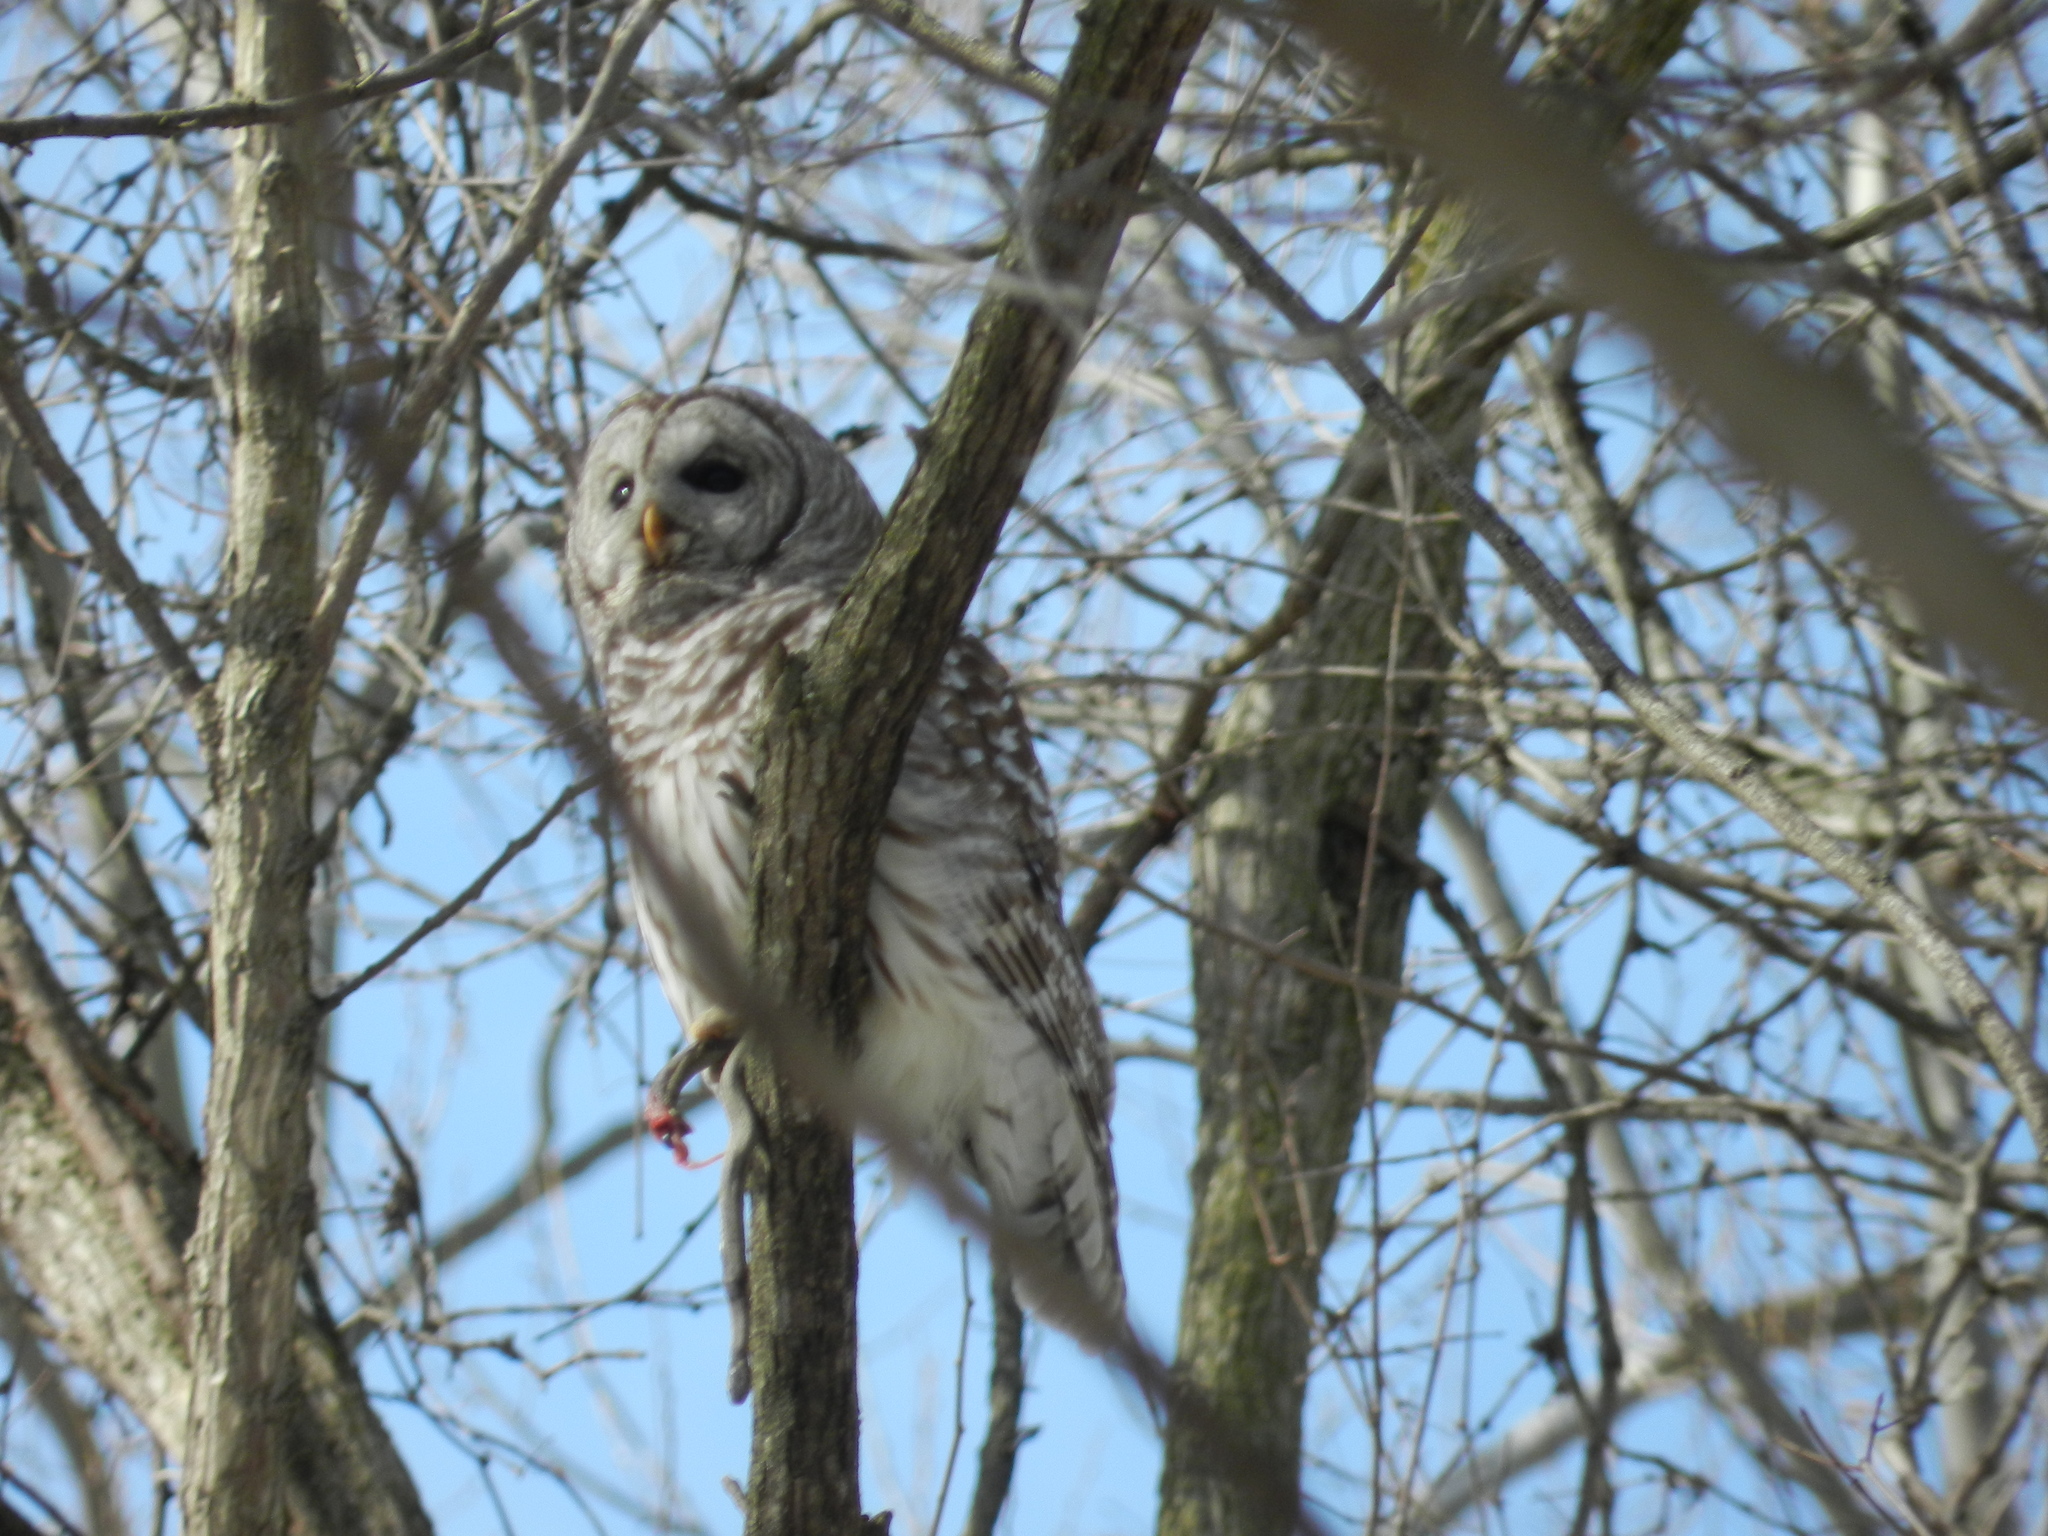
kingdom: Animalia
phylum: Chordata
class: Aves
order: Strigiformes
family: Strigidae
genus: Strix
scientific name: Strix varia
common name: Barred owl
